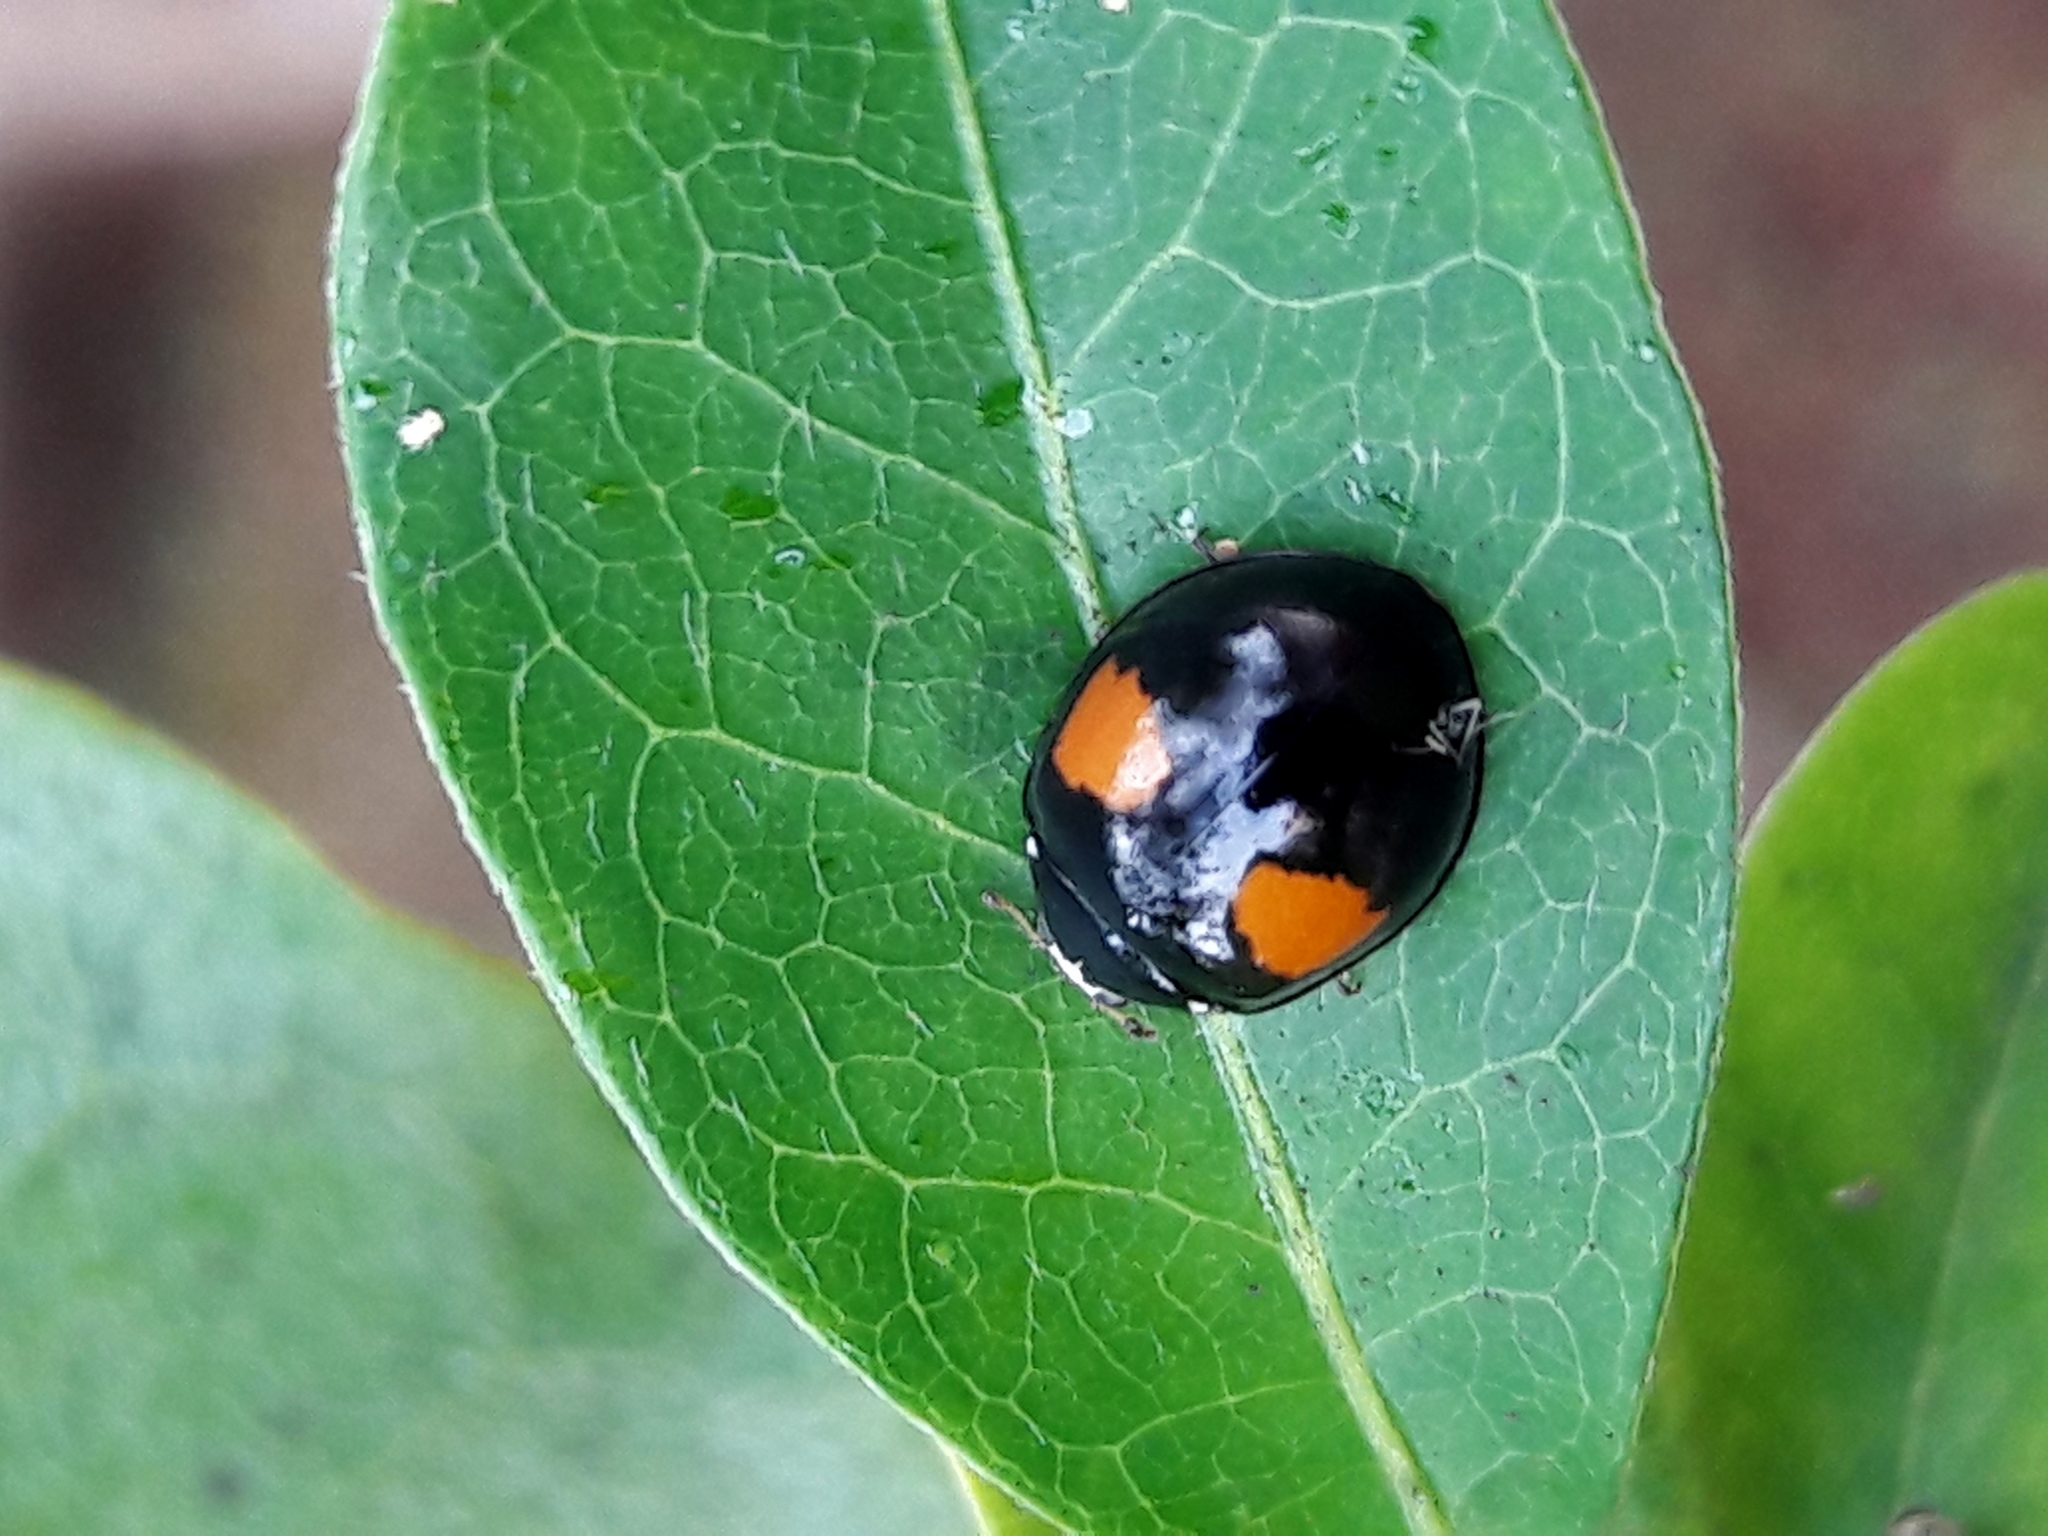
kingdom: Animalia
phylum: Arthropoda
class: Insecta
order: Coleoptera
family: Coccinellidae
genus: Olla
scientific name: Olla v-nigrum
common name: Ashy gray lady beetle
